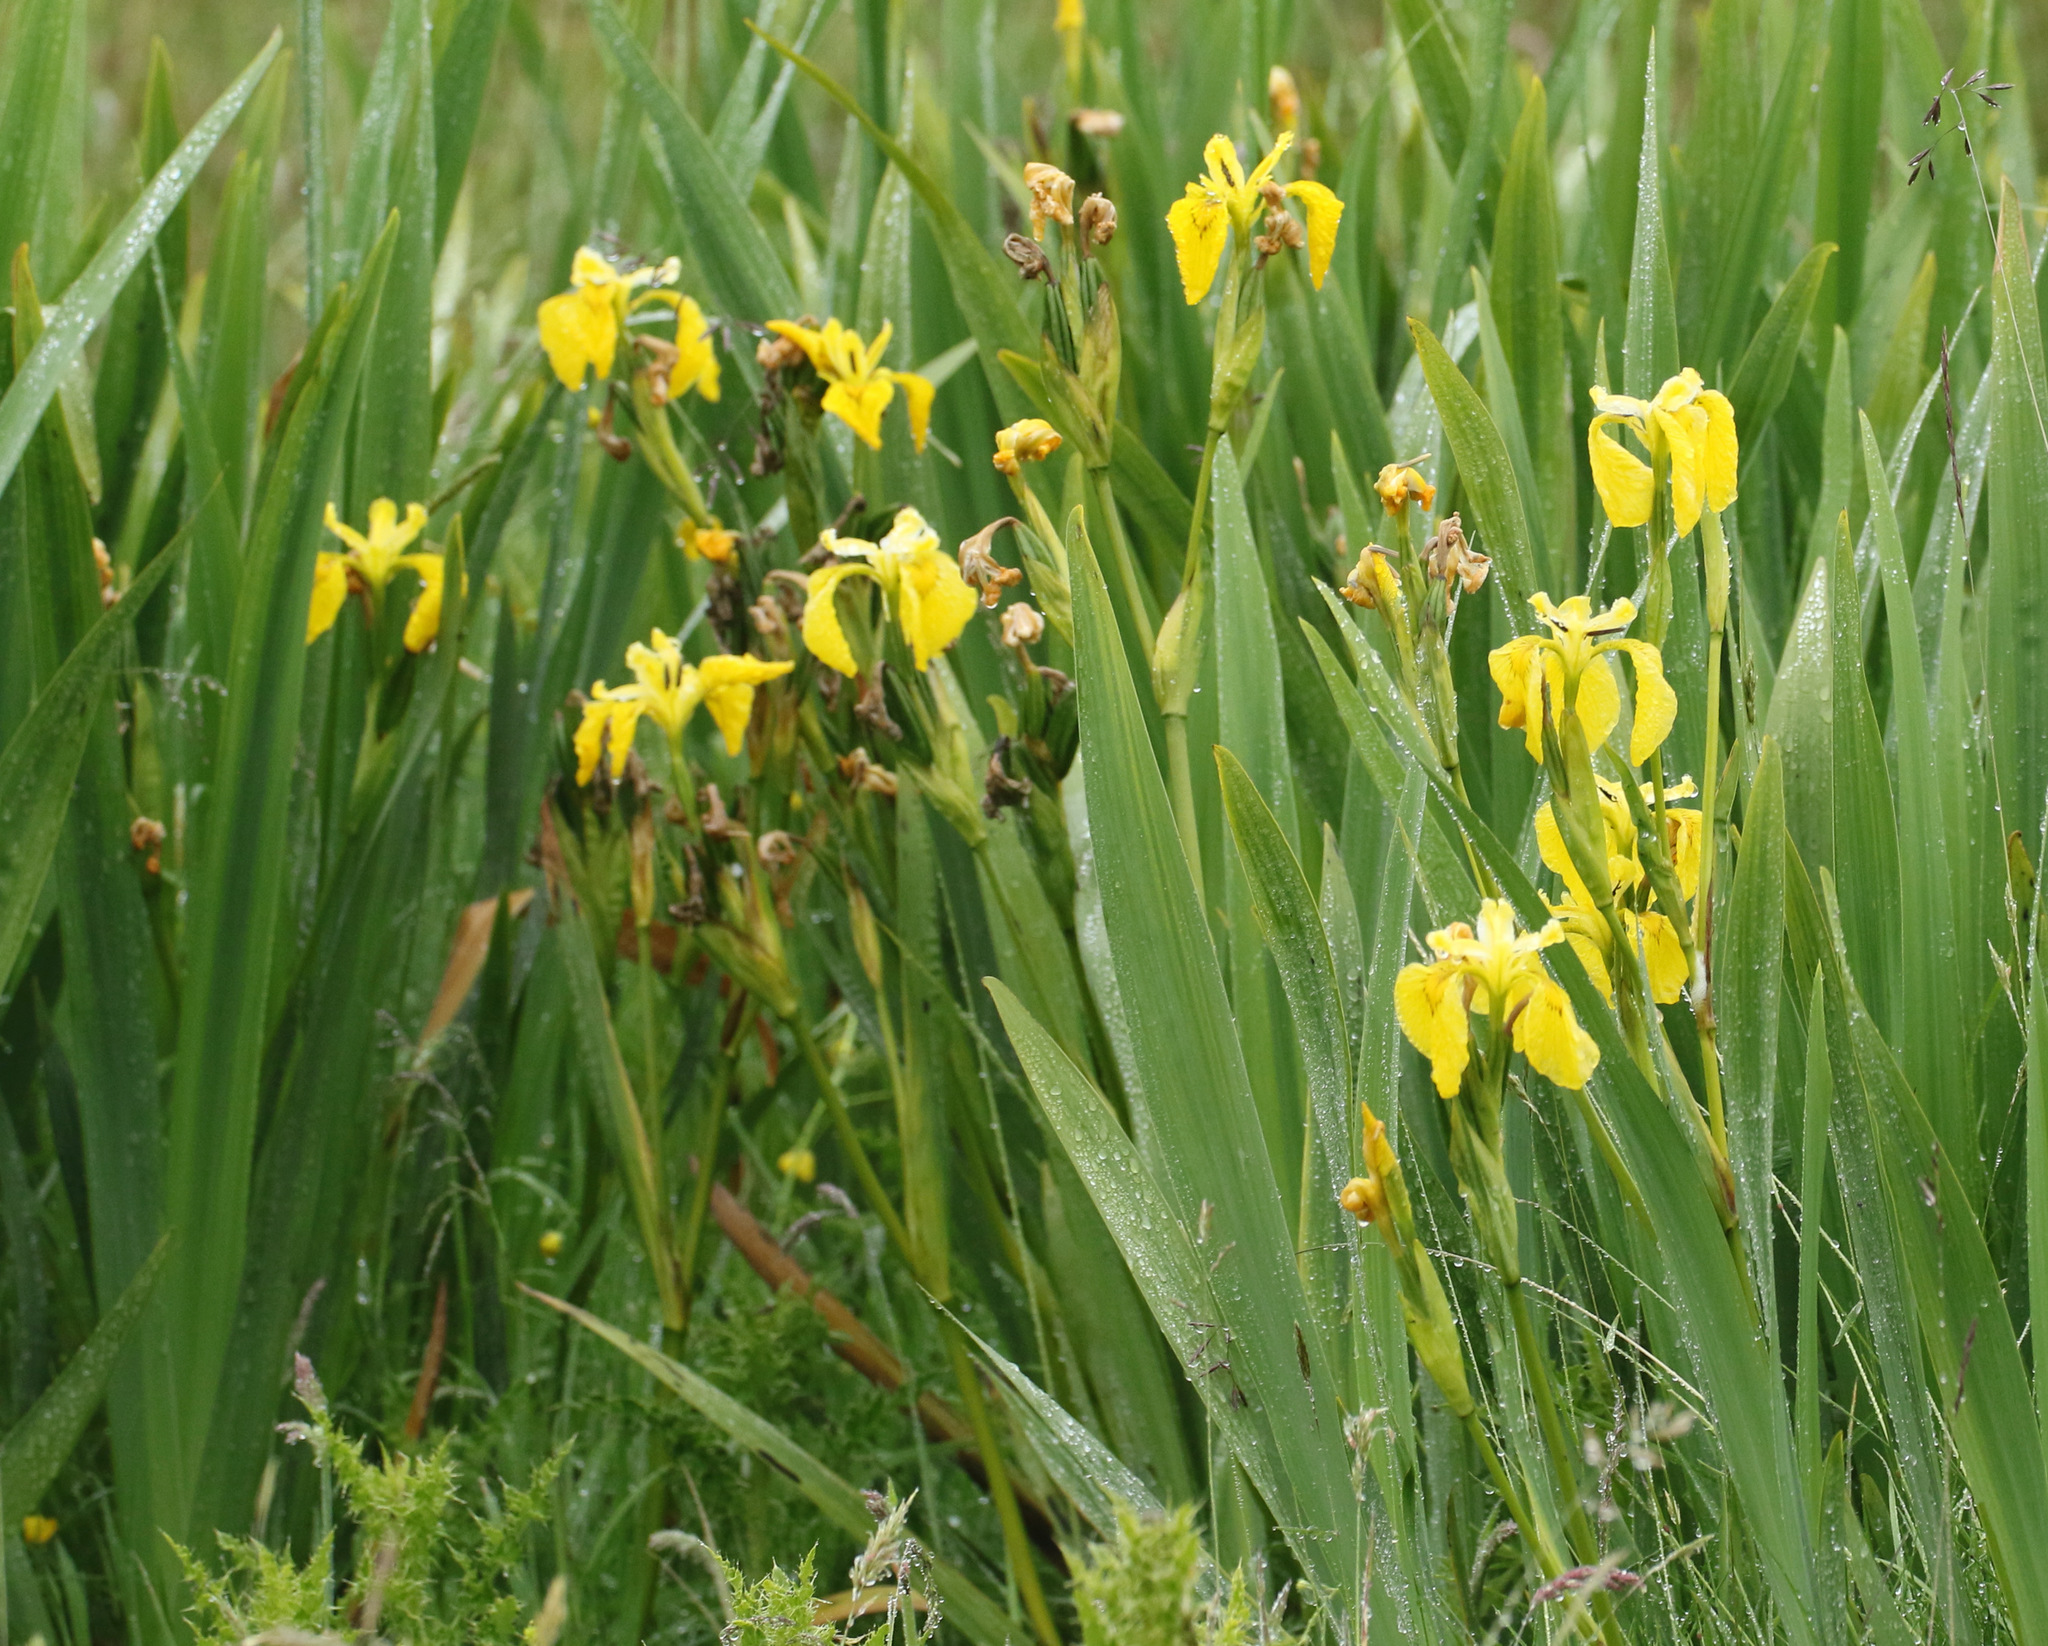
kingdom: Plantae
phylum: Tracheophyta
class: Liliopsida
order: Asparagales
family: Iridaceae
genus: Iris
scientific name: Iris pseudacorus
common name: Yellow flag
